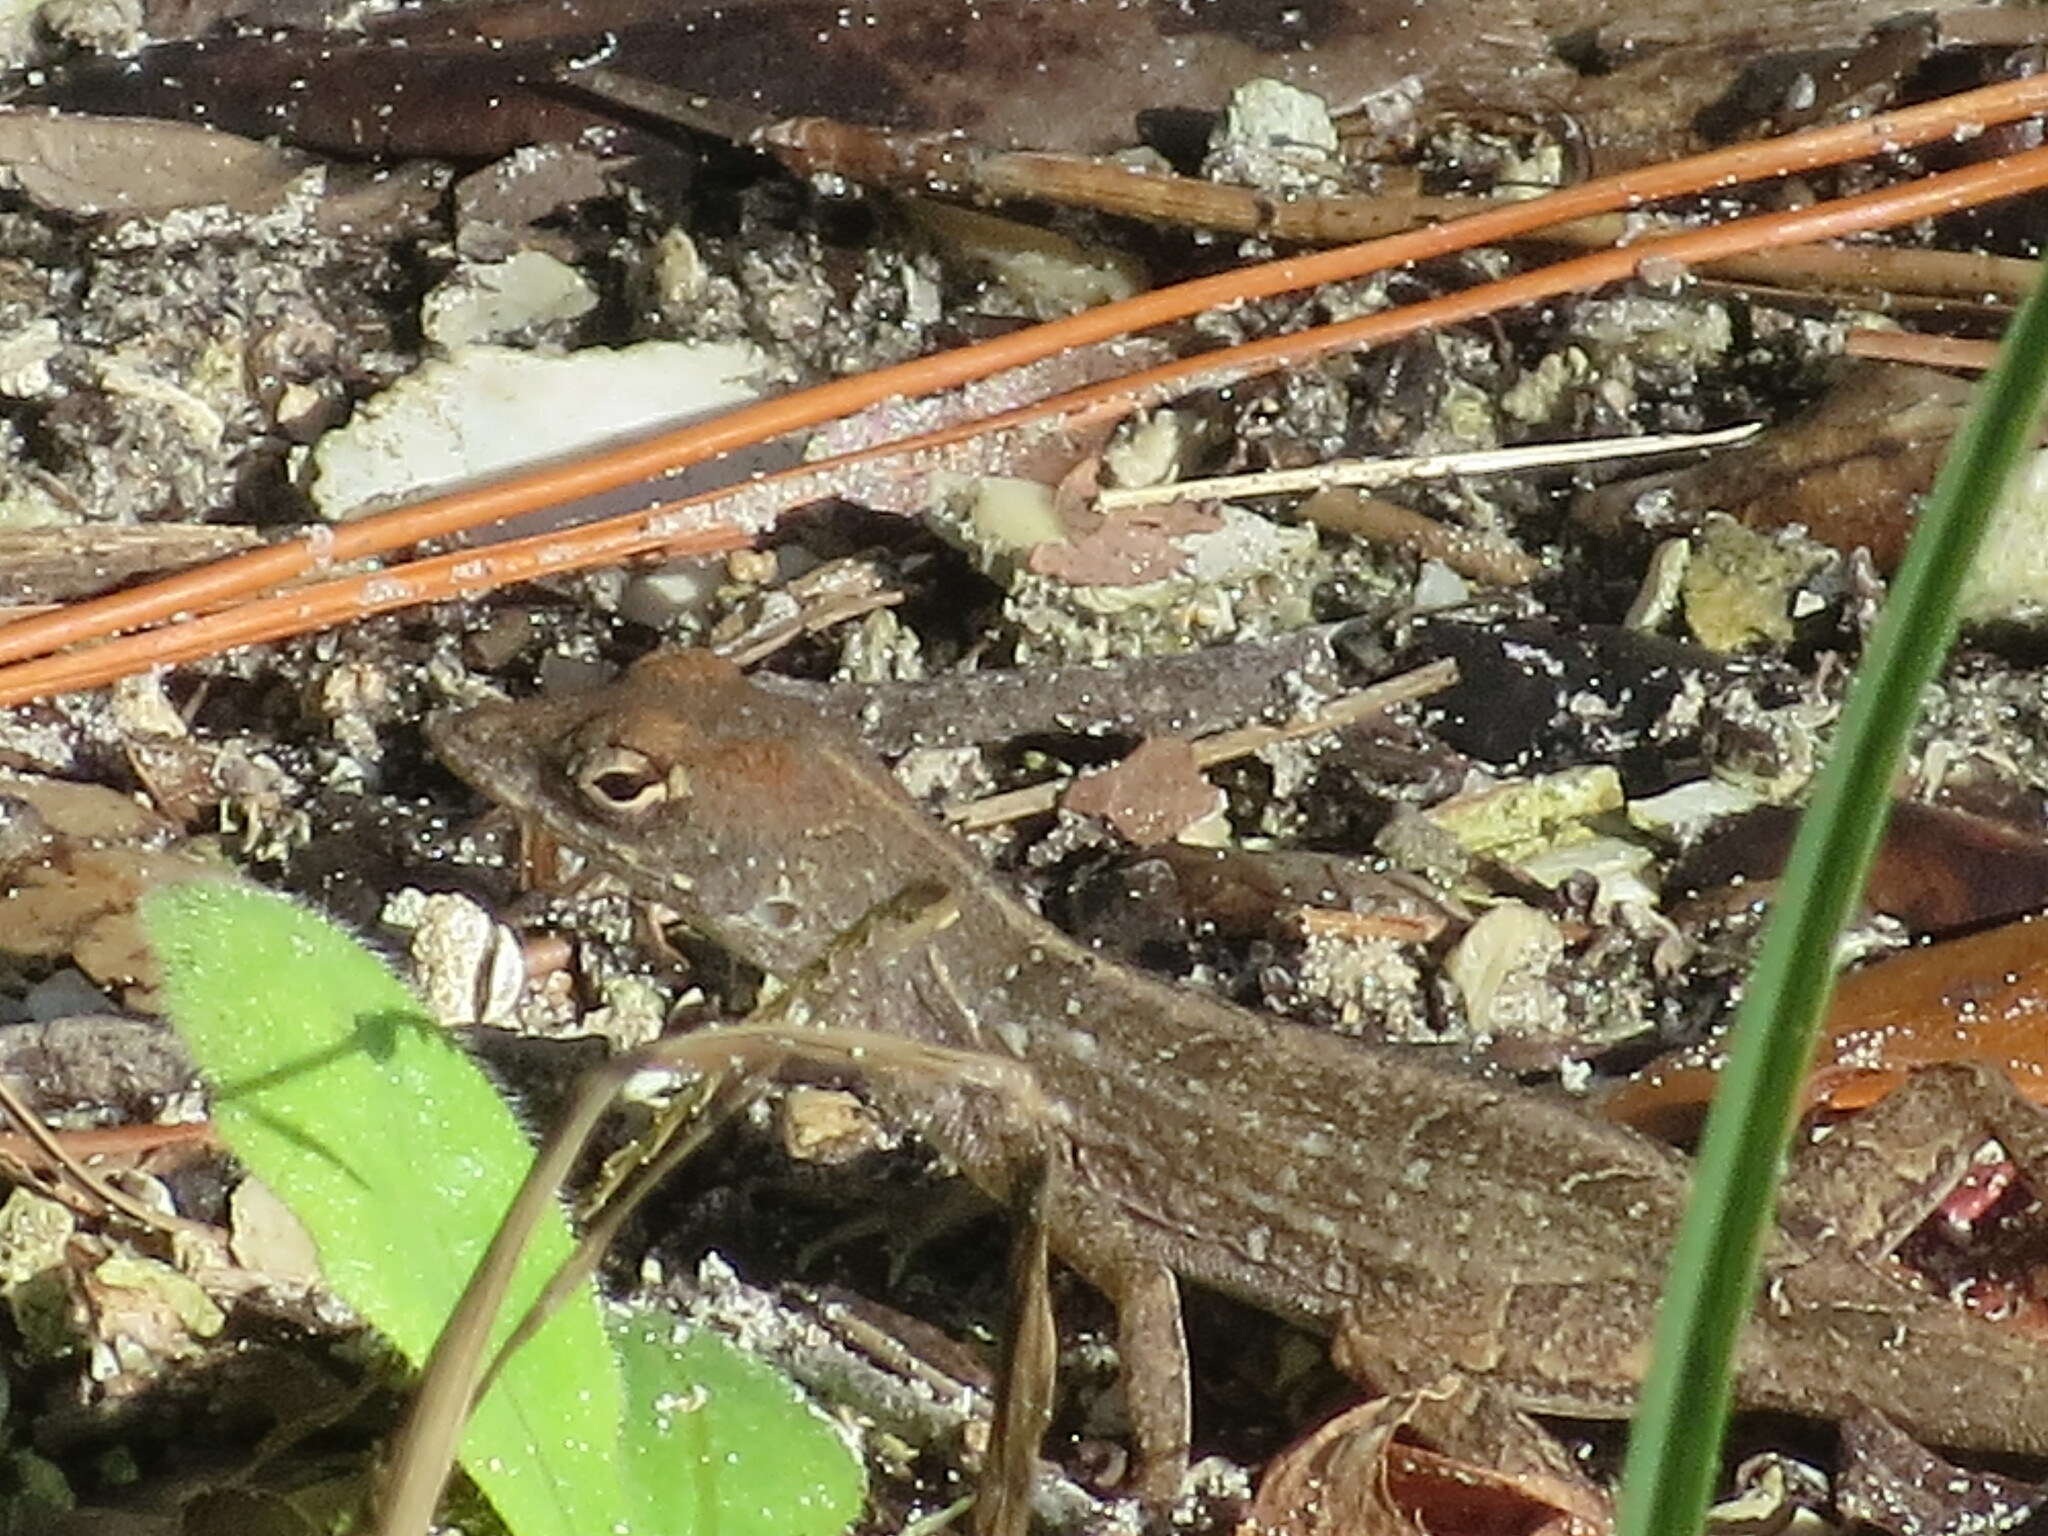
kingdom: Animalia
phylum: Chordata
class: Squamata
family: Dactyloidae
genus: Anolis
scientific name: Anolis sagrei
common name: Brown anole
